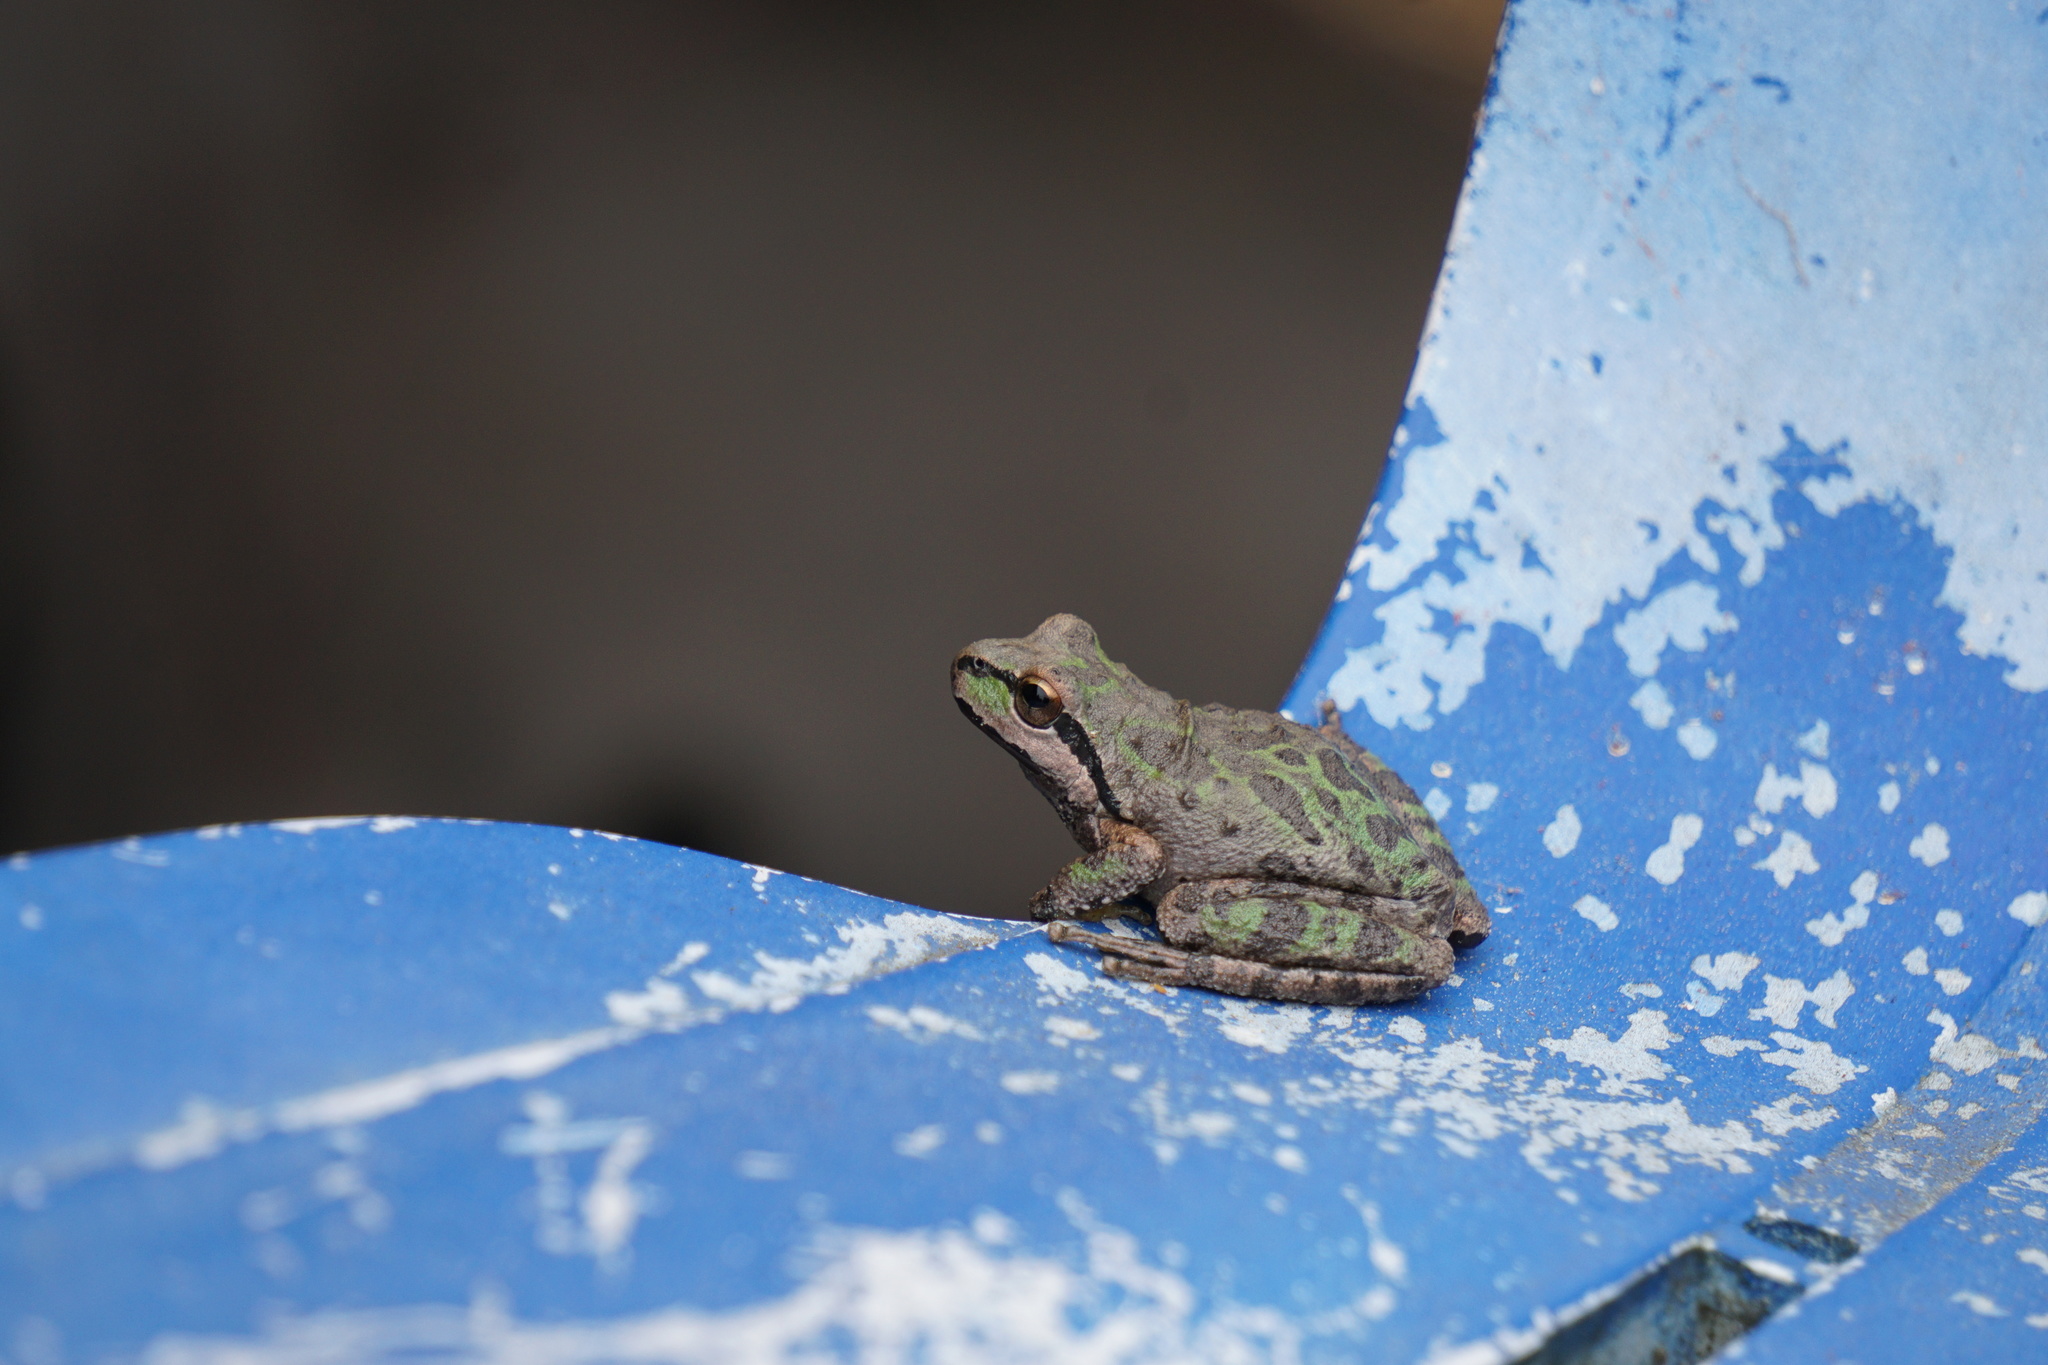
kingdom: Animalia
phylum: Chordata
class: Amphibia
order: Anura
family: Hylidae
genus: Pseudacris
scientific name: Pseudacris regilla
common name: Pacific chorus frog
